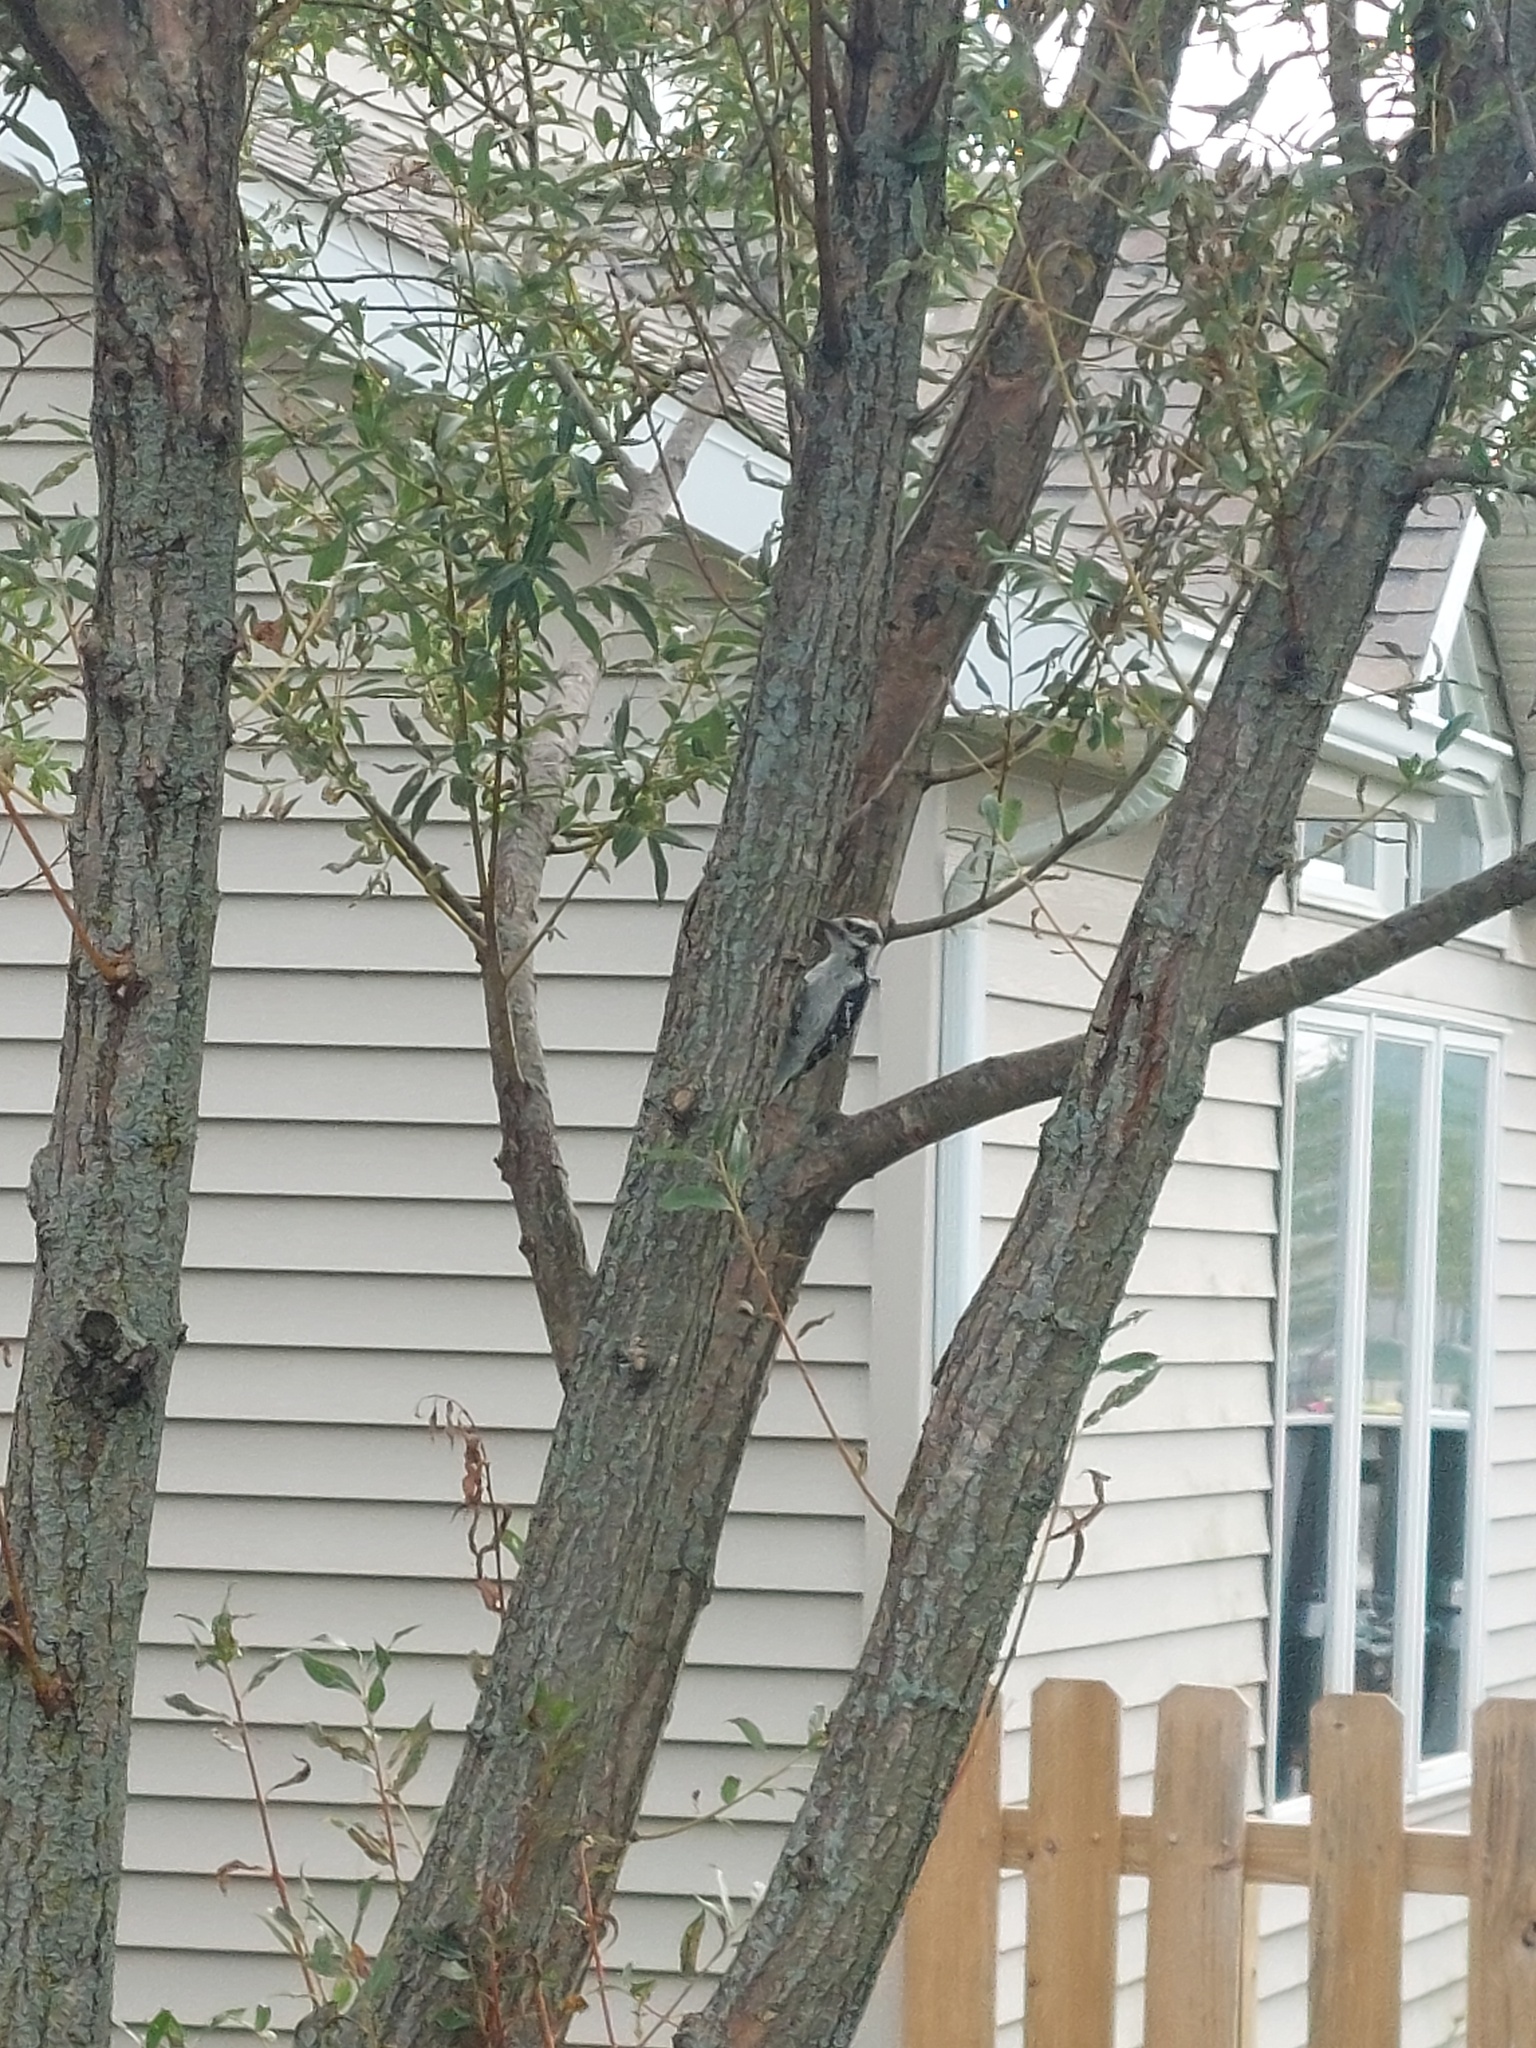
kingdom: Animalia
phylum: Chordata
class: Aves
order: Piciformes
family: Picidae
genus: Leuconotopicus
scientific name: Leuconotopicus villosus
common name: Hairy woodpecker
